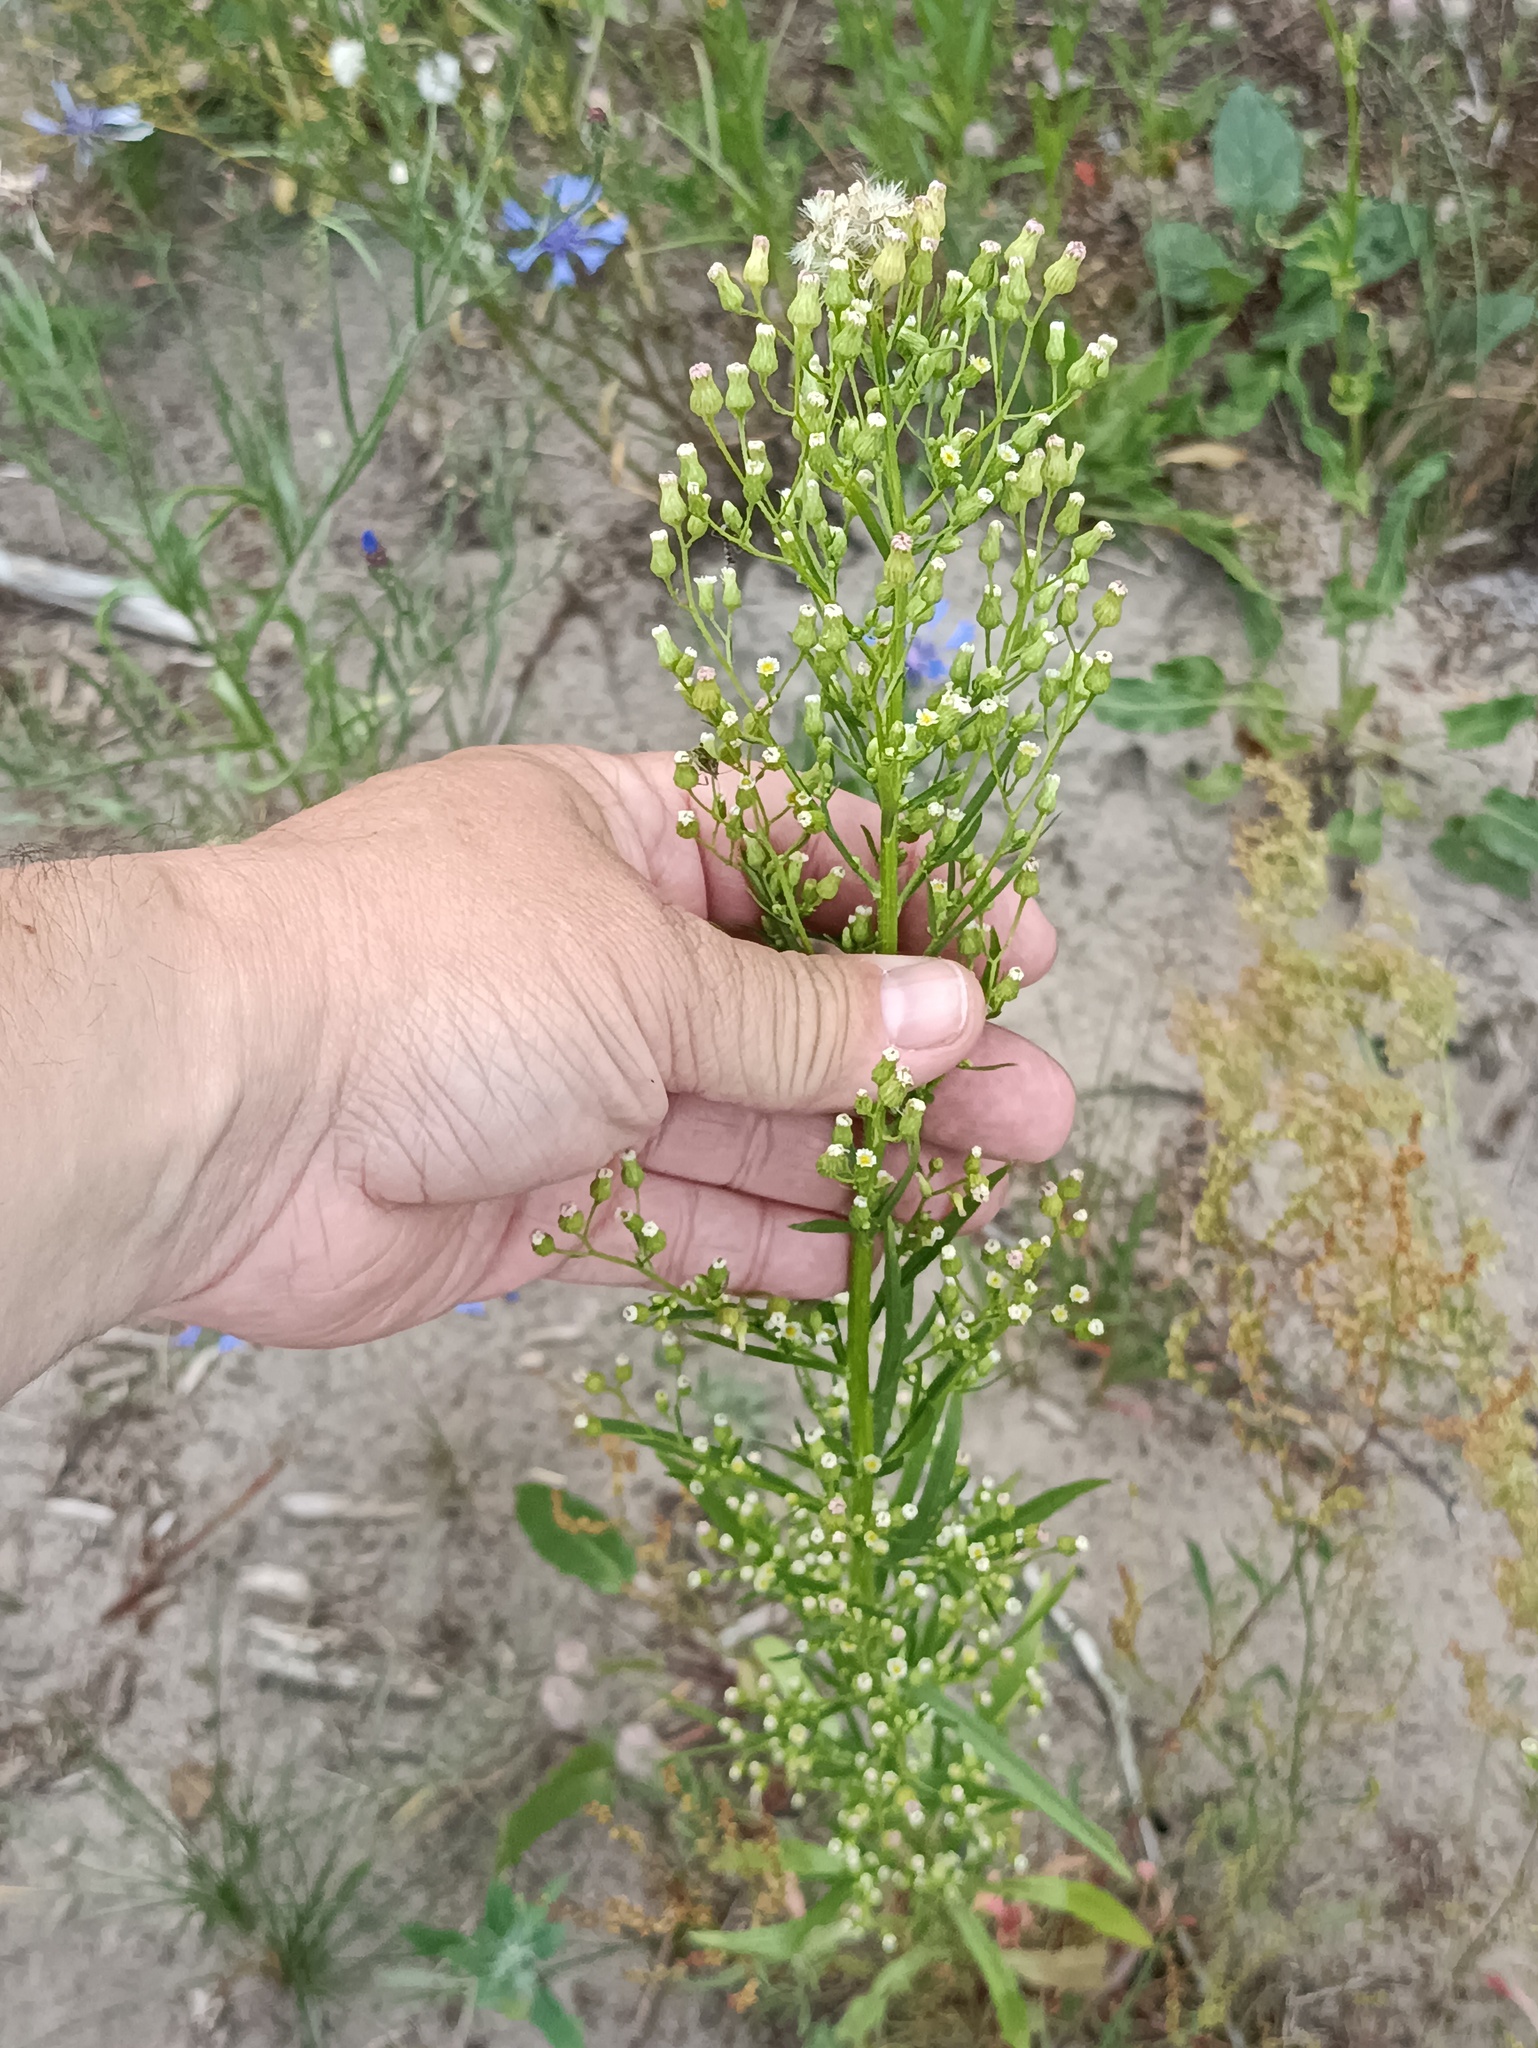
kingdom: Plantae
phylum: Tracheophyta
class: Magnoliopsida
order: Asterales
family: Asteraceae
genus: Erigeron
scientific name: Erigeron canadensis
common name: Canadian fleabane
